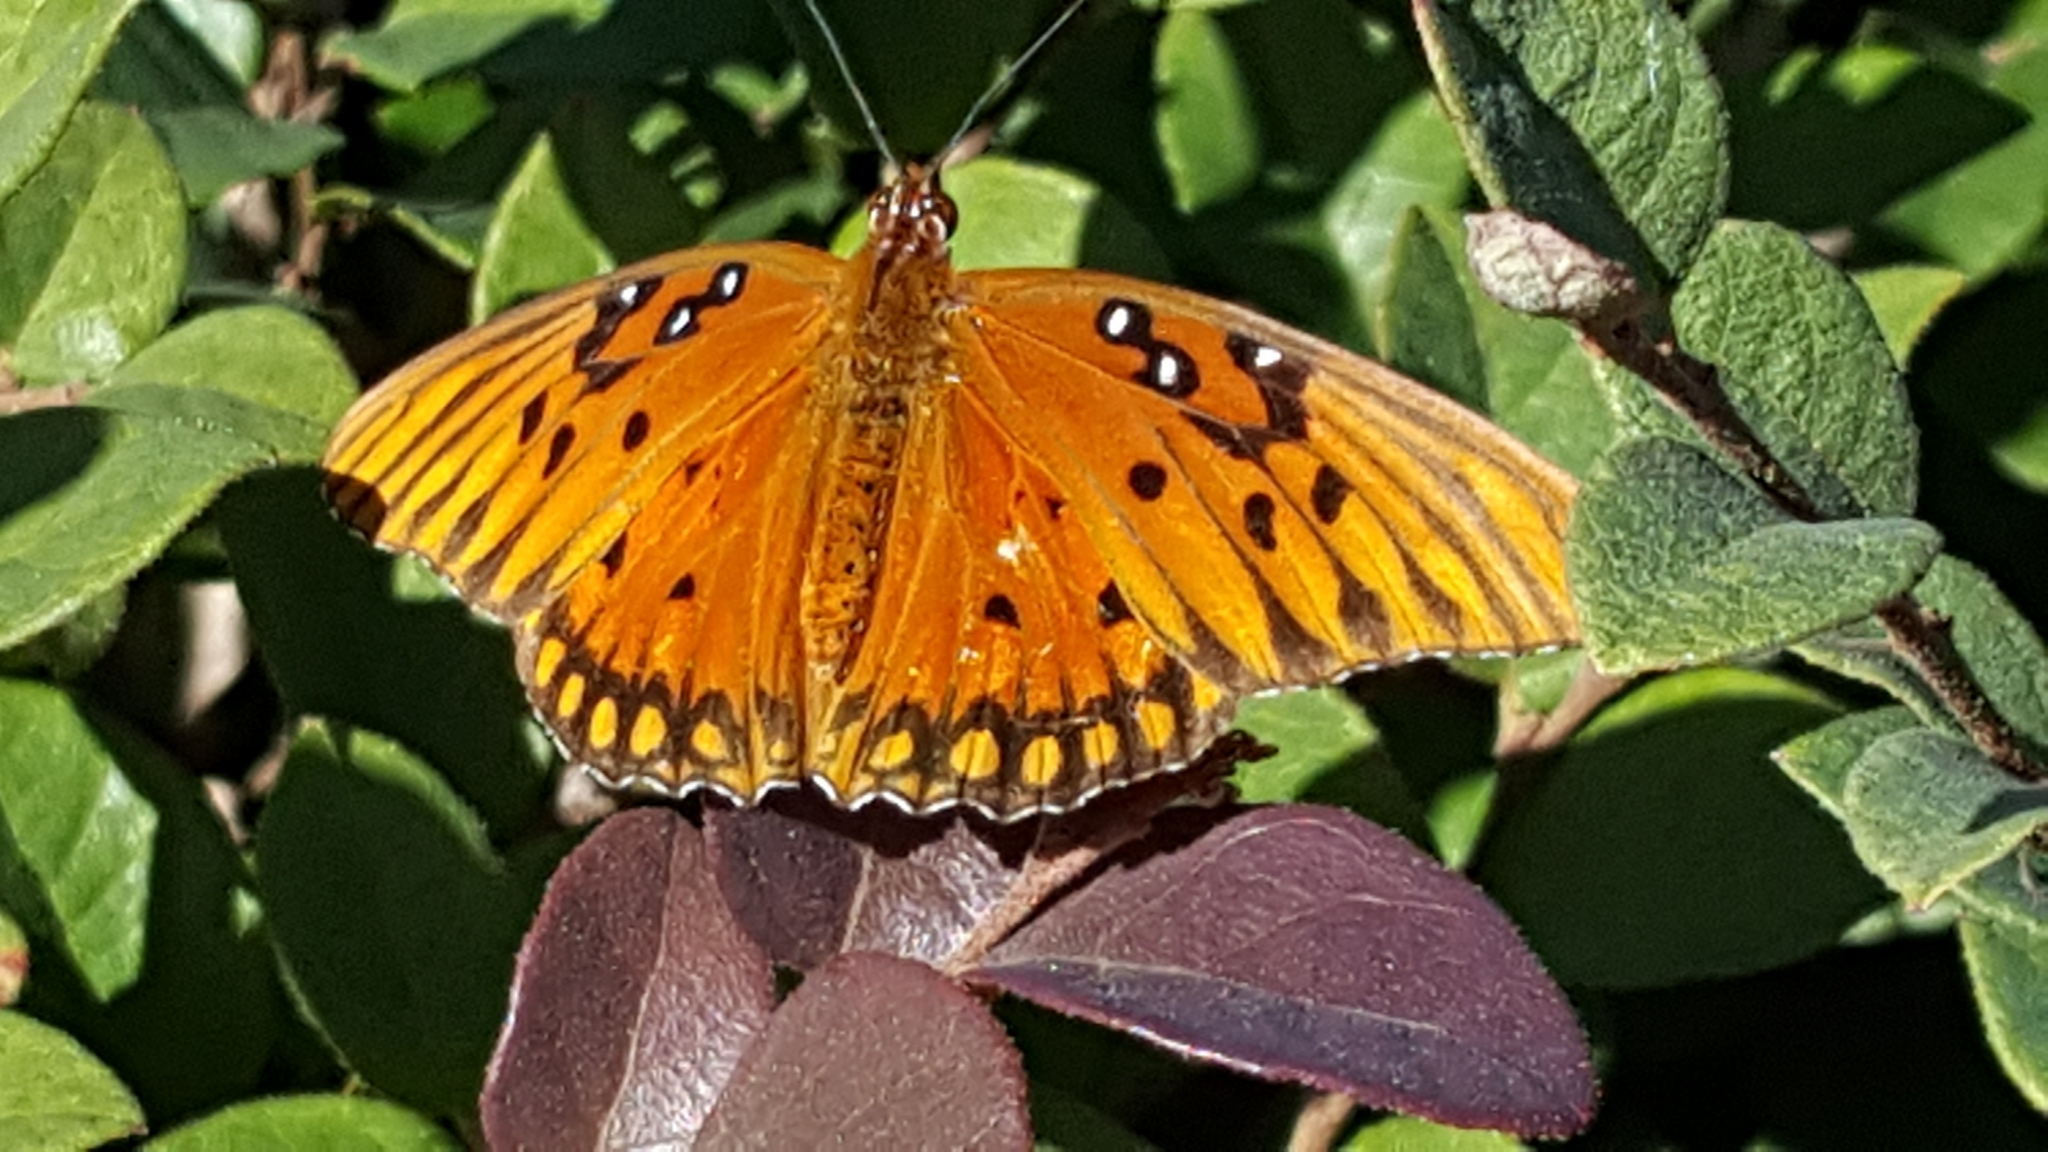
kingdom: Animalia
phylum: Arthropoda
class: Insecta
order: Lepidoptera
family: Nymphalidae
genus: Dione
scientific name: Dione vanillae
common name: Gulf fritillary
